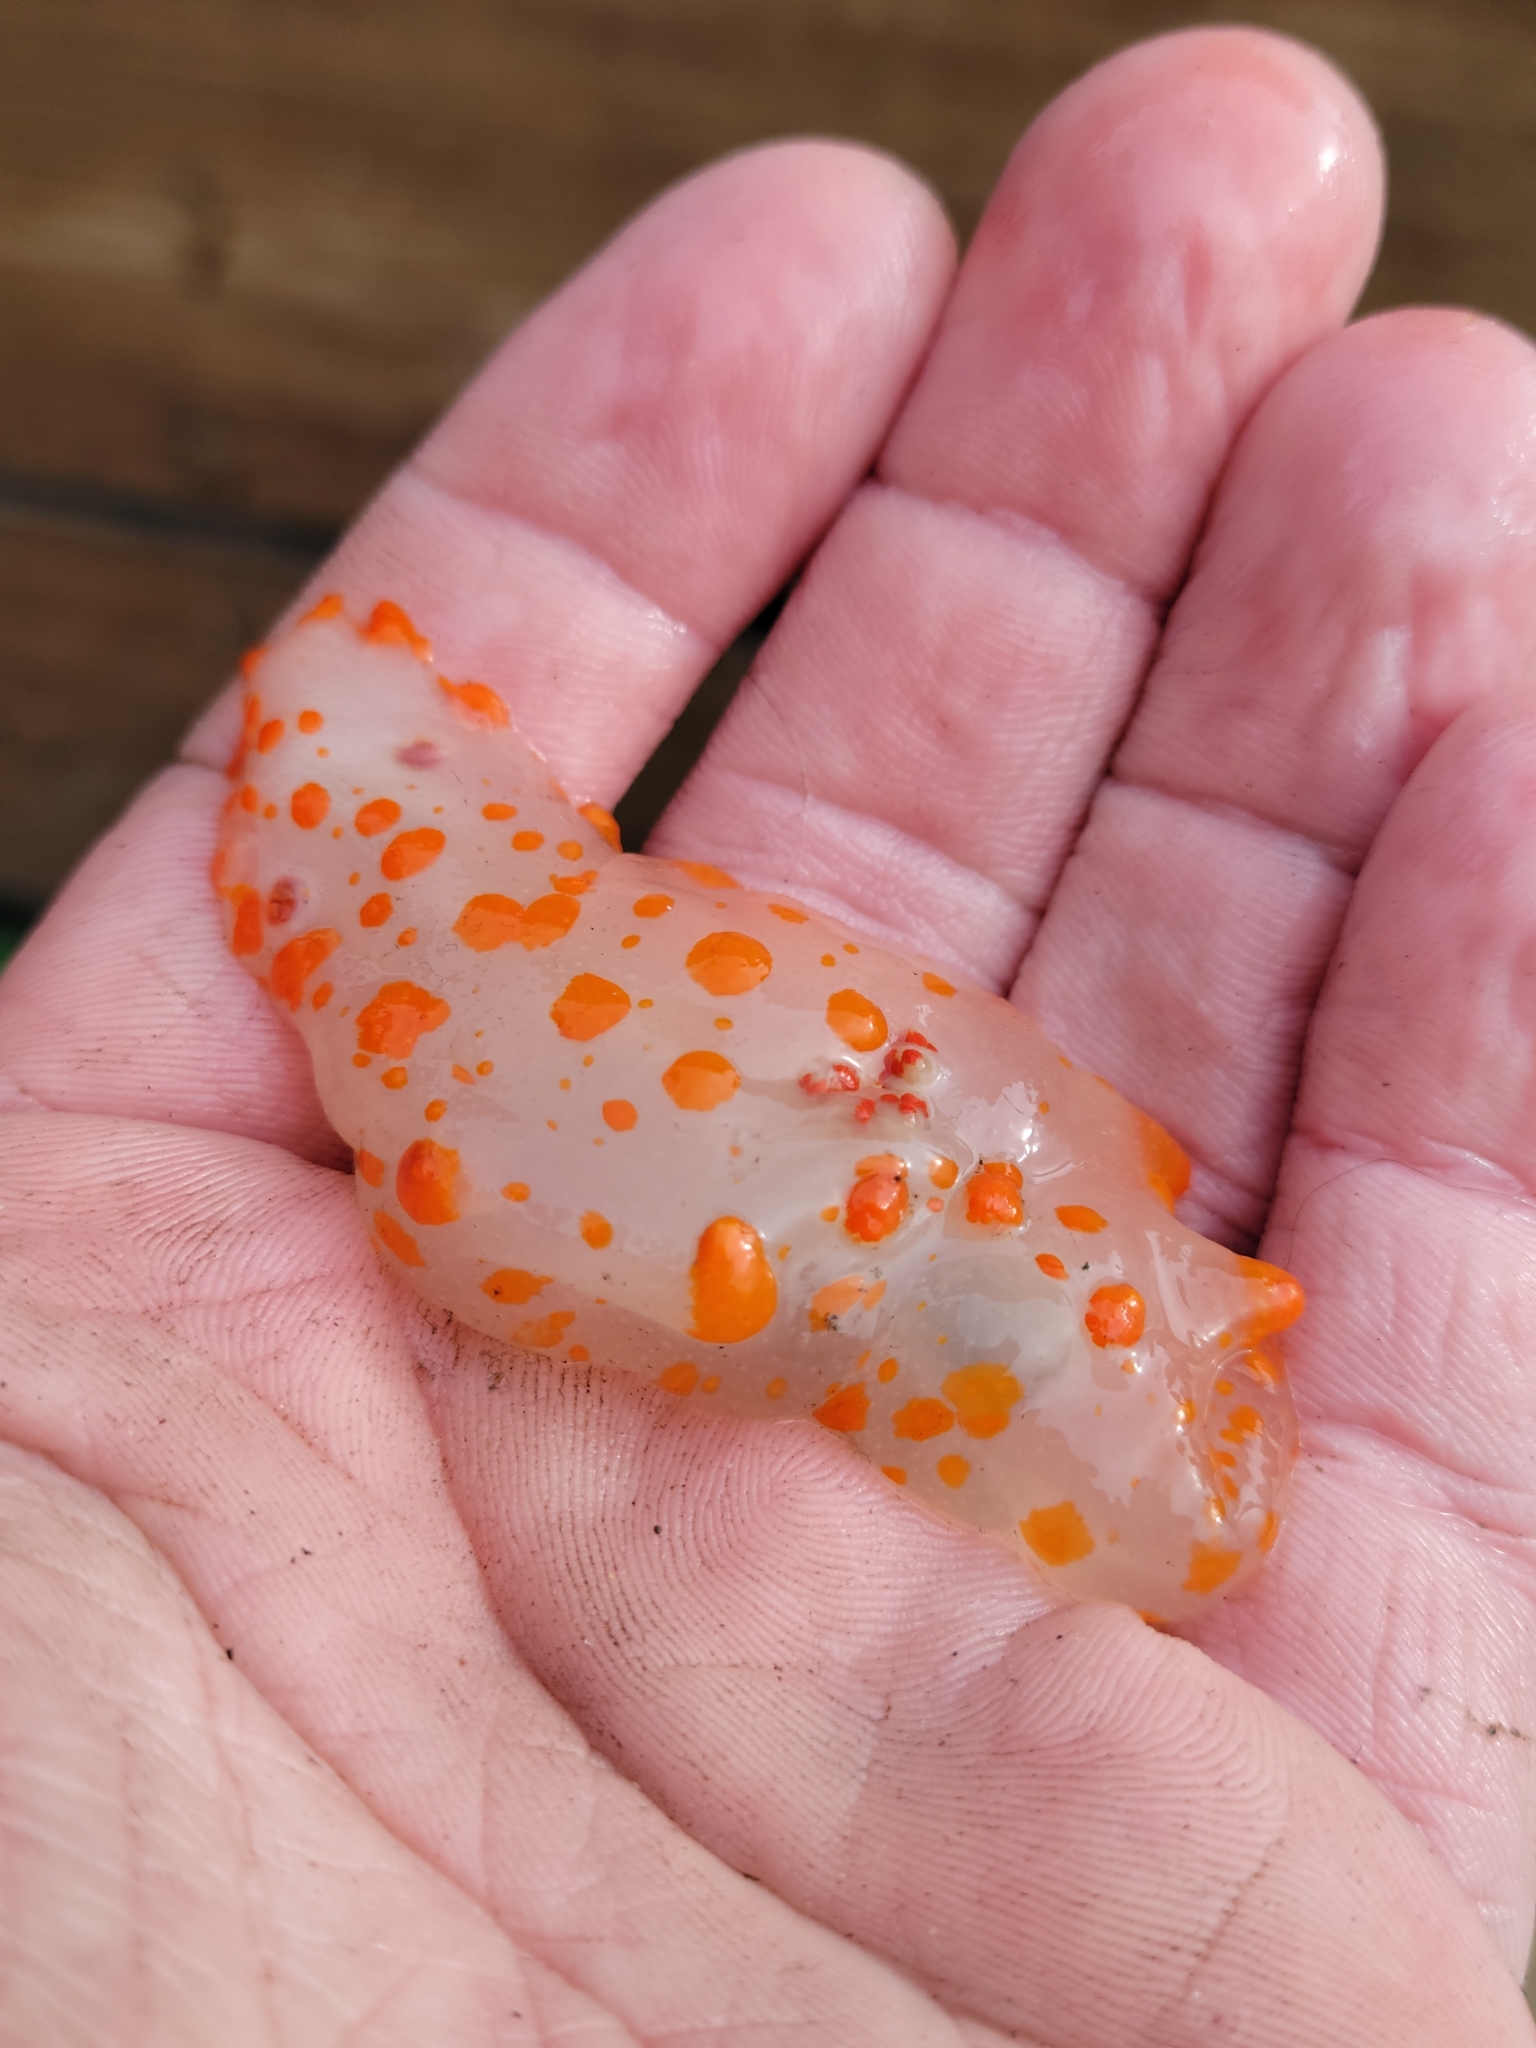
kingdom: Animalia
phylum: Mollusca
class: Gastropoda
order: Nudibranchia
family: Polyceridae
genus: Triopha
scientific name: Triopha catalinae
